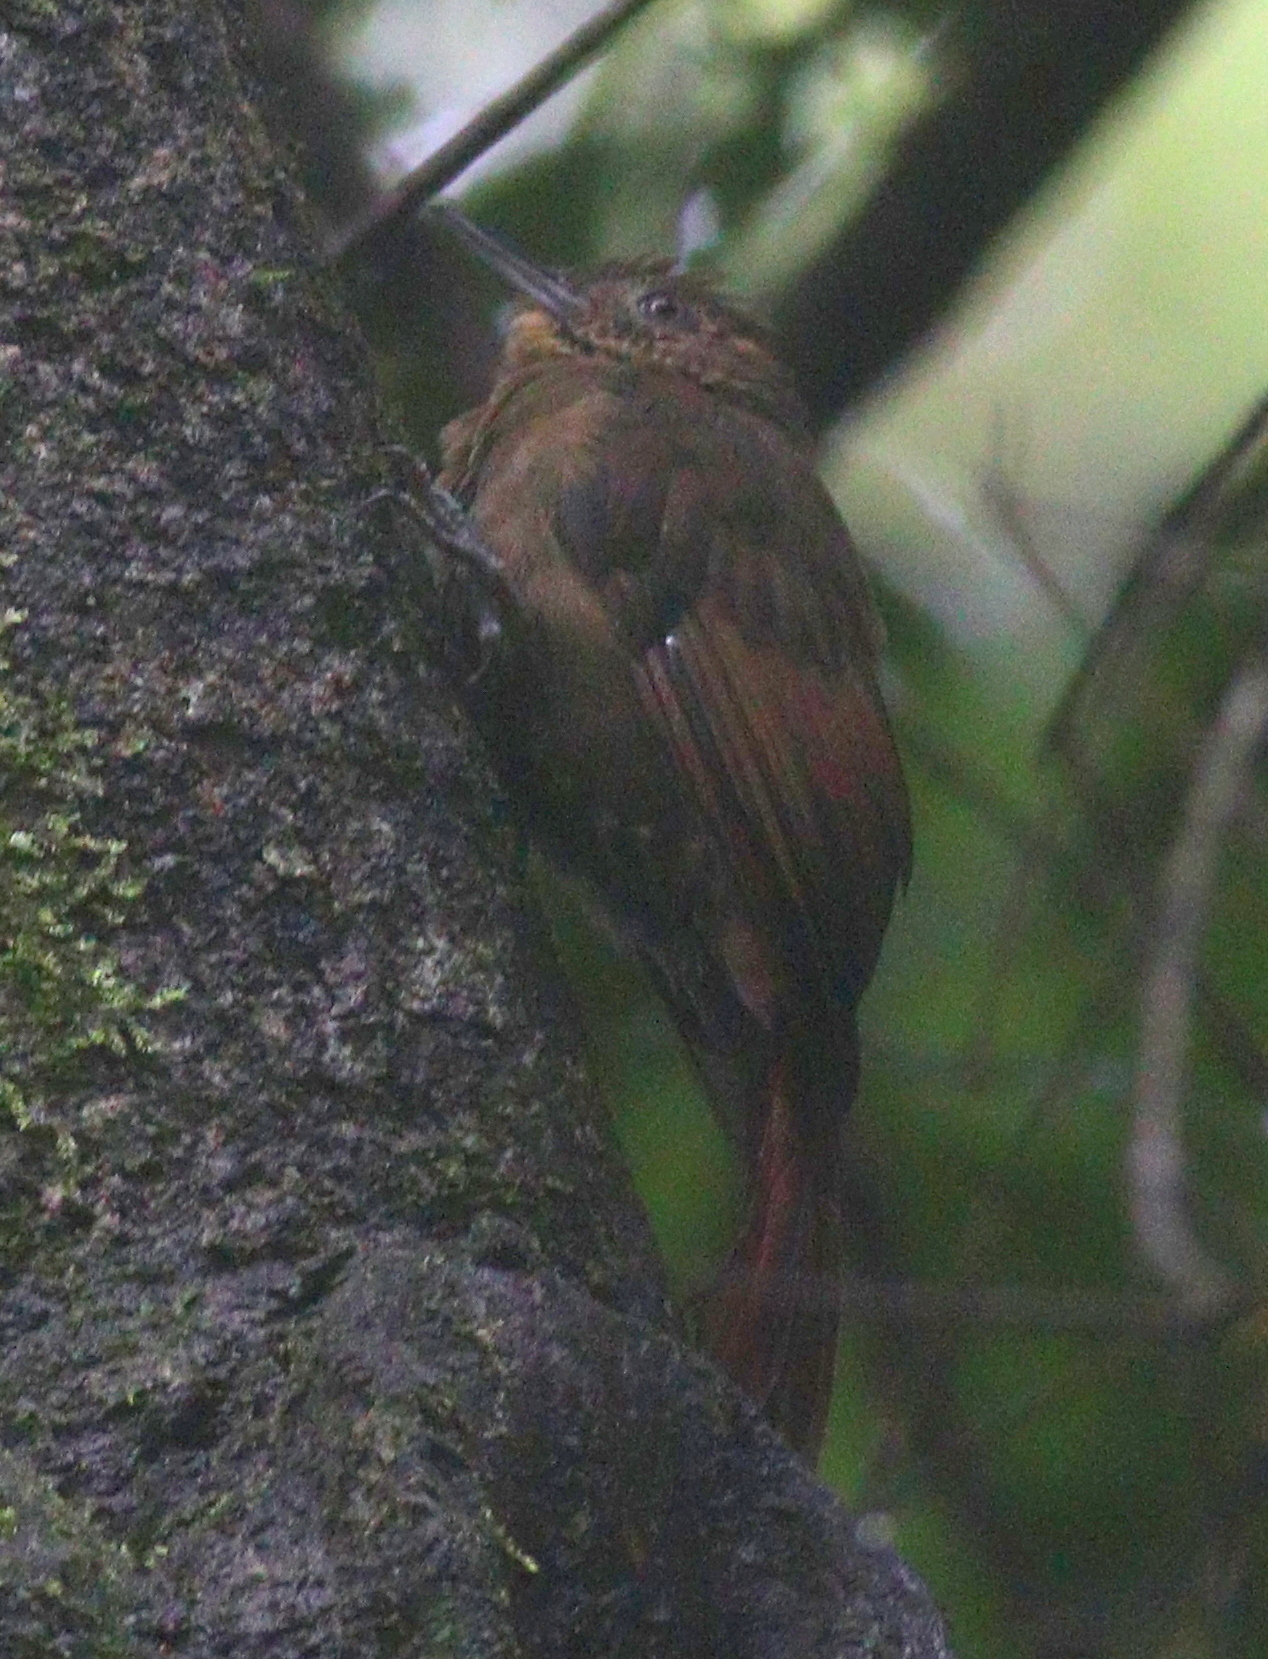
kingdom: Animalia
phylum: Chordata
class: Aves
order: Passeriformes
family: Furnariidae
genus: Dendrocincla
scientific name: Dendrocincla anabatina
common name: Tawny-winged woodcreeper
